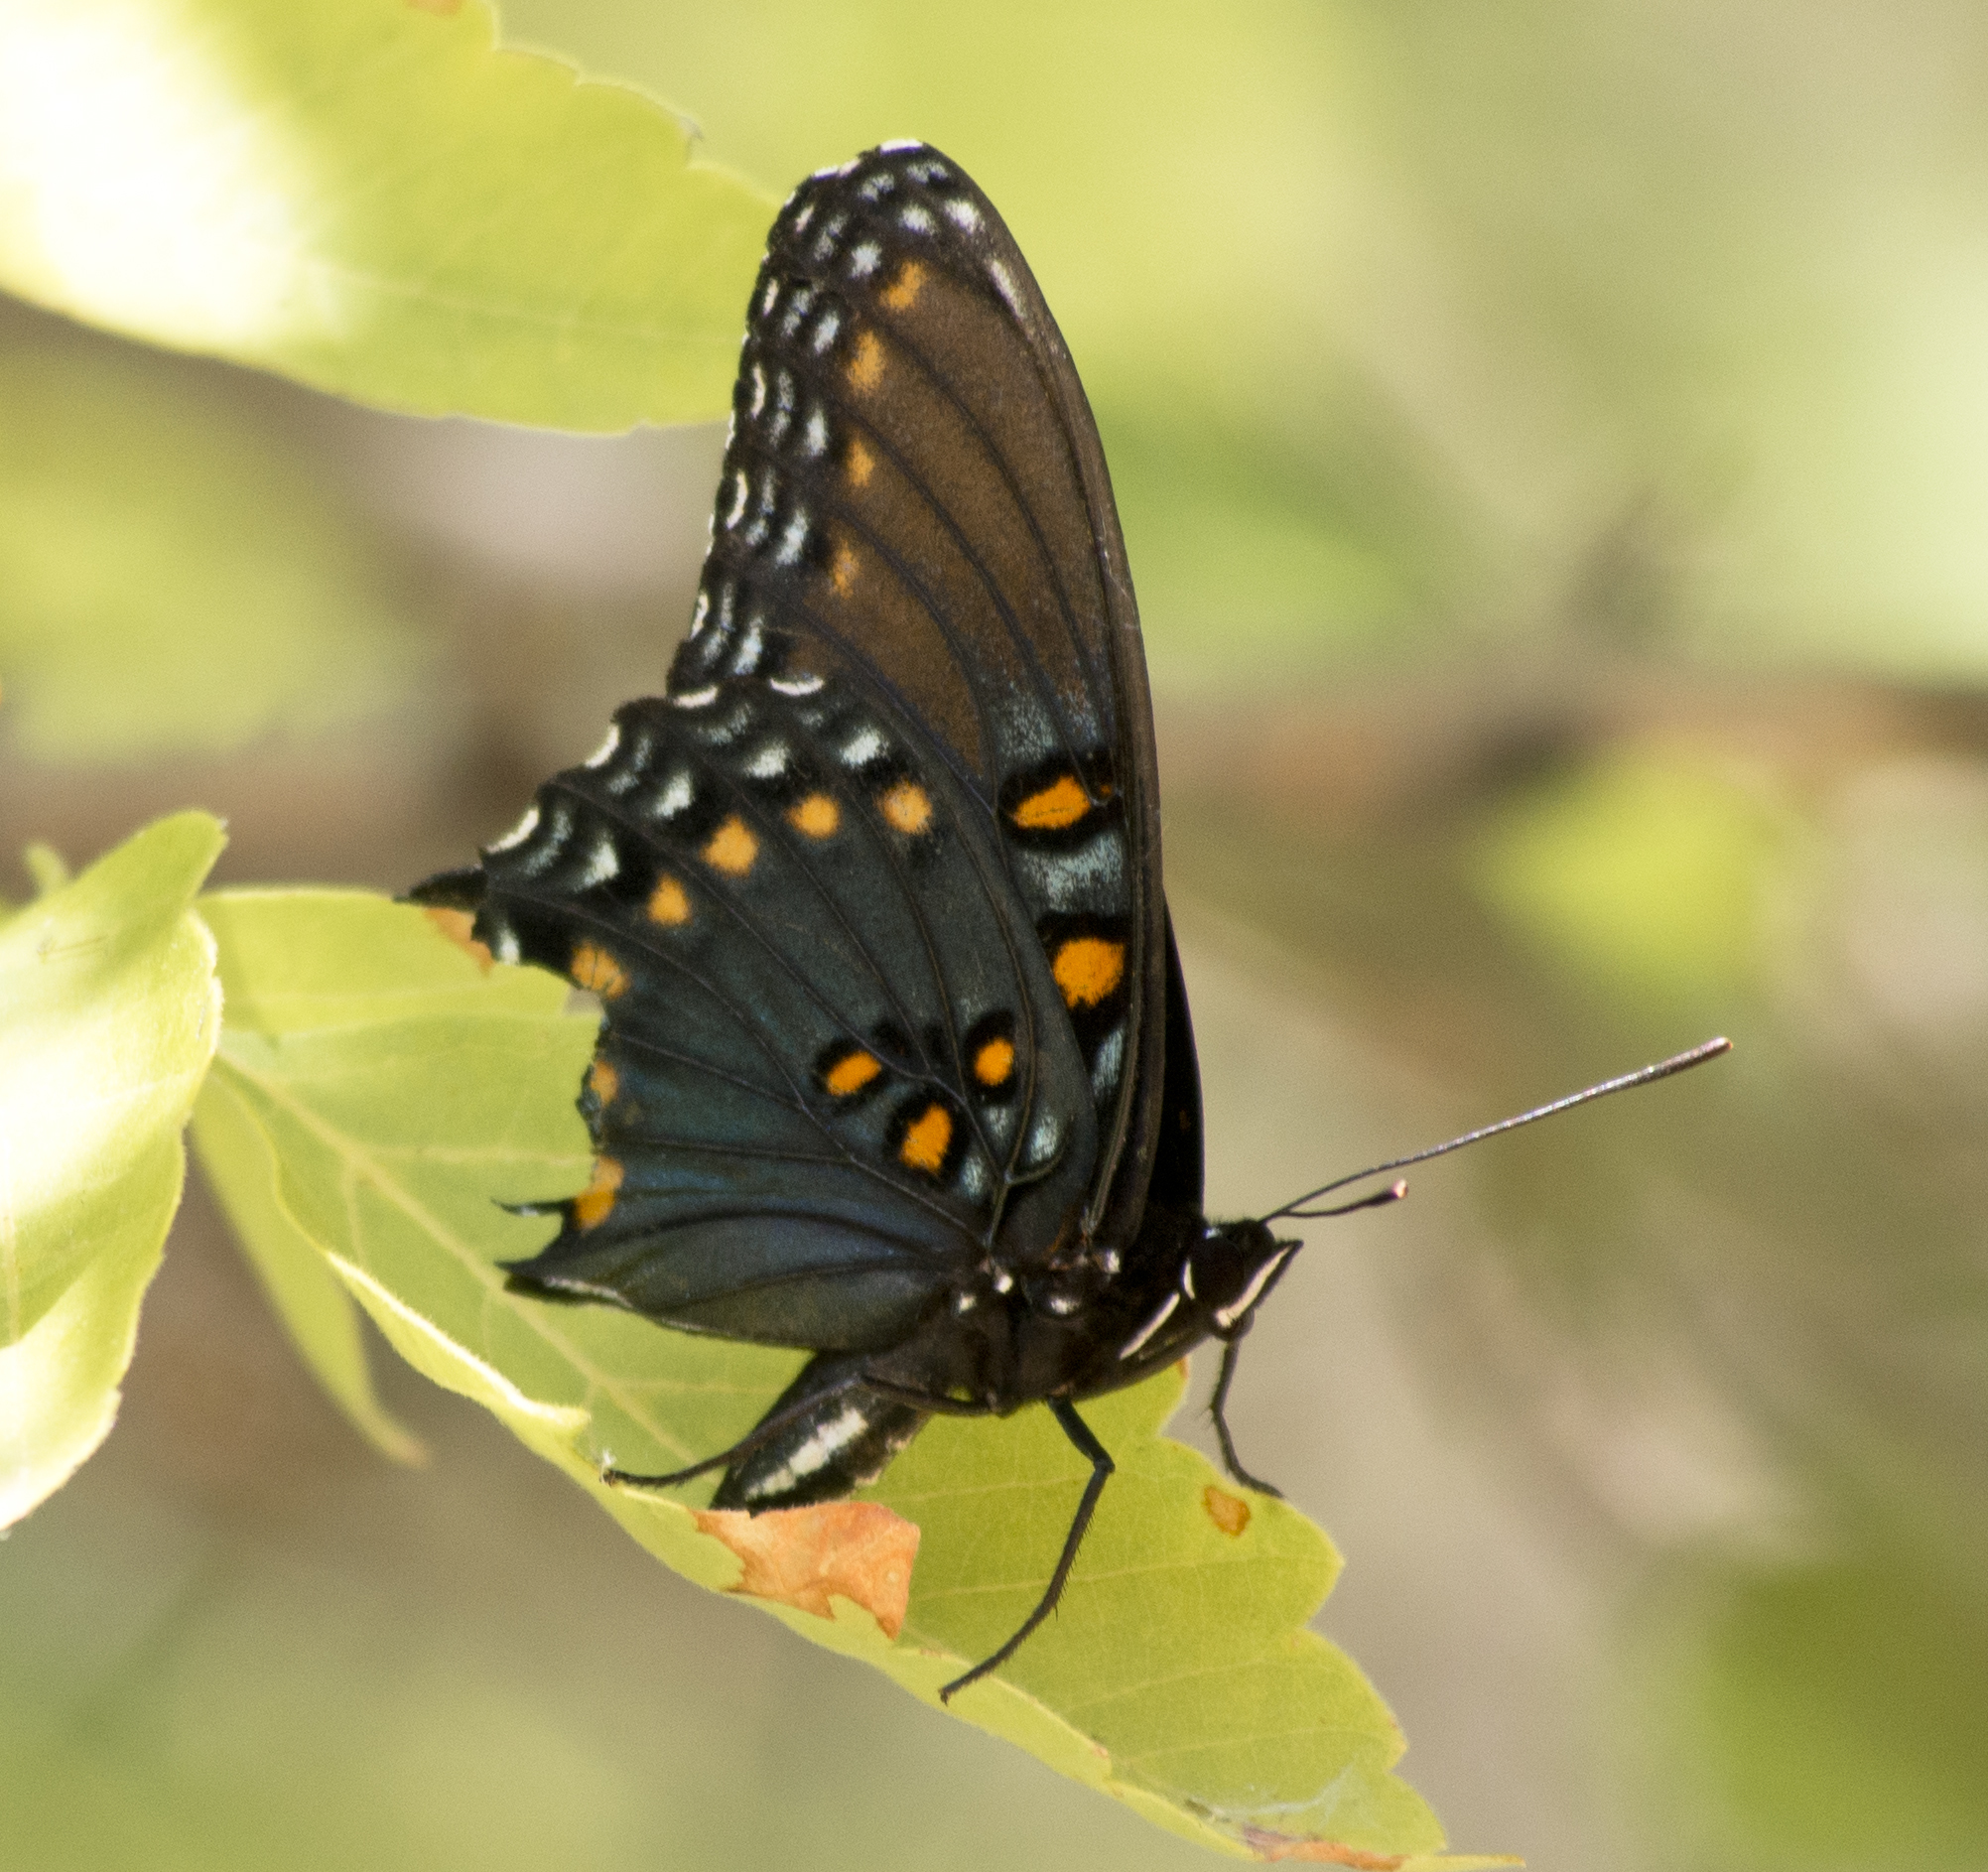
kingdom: Animalia
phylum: Arthropoda
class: Insecta
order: Lepidoptera
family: Nymphalidae
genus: Limenitis
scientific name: Limenitis arthemis
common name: Red-spotted admiral
